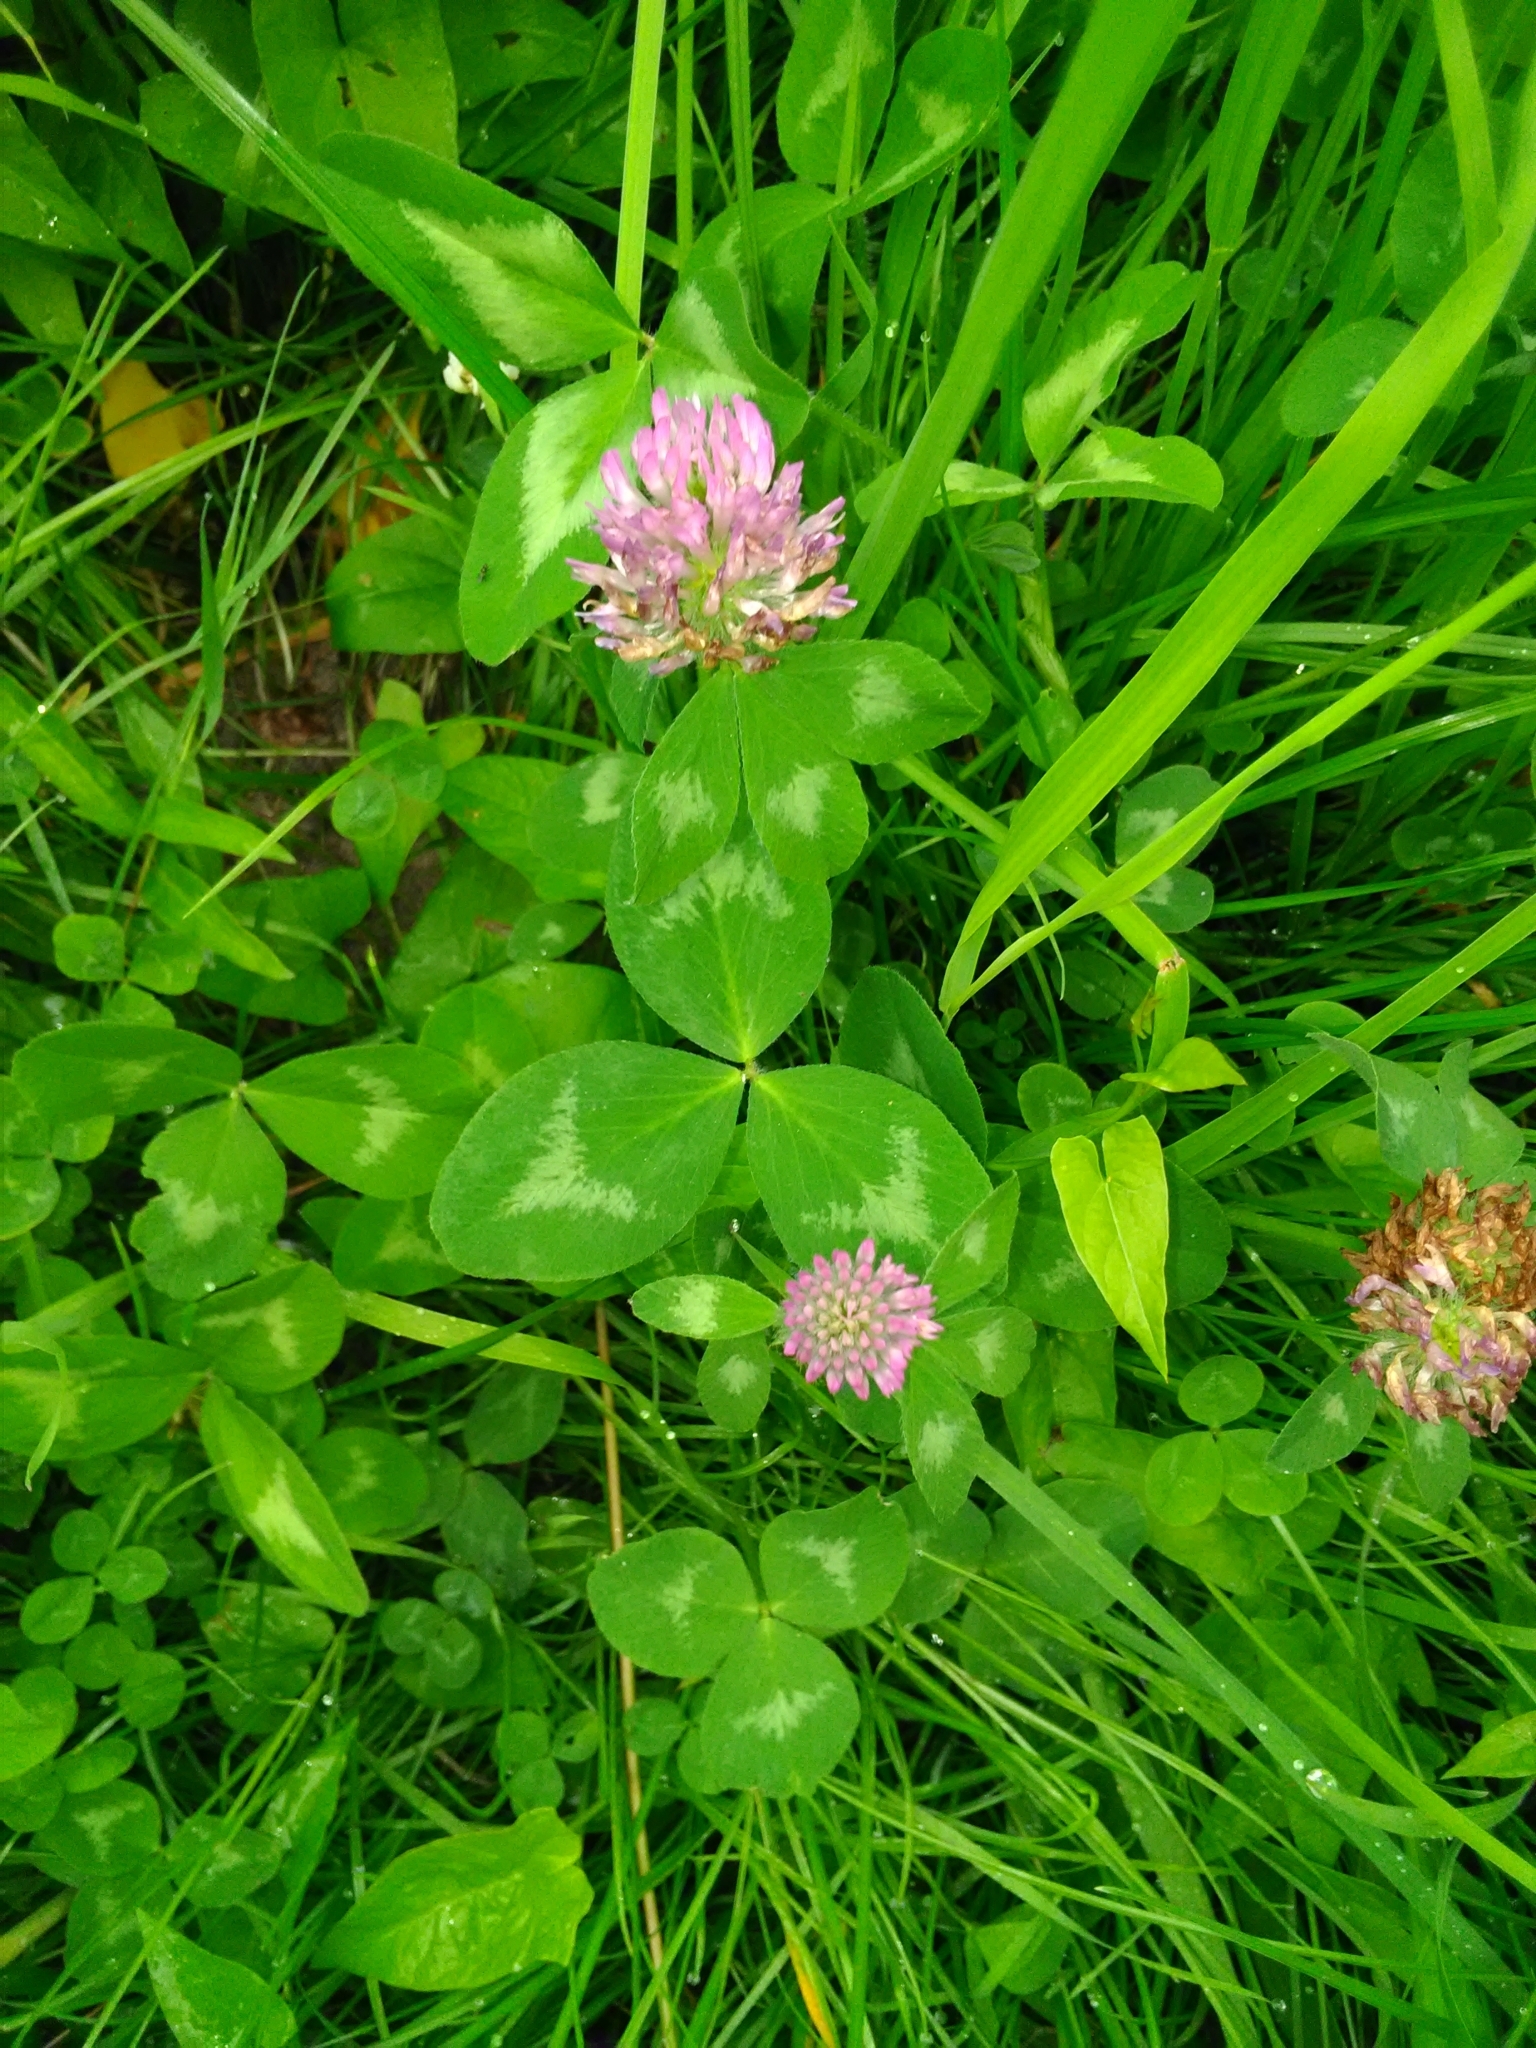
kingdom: Plantae
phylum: Tracheophyta
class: Magnoliopsida
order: Fabales
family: Fabaceae
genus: Trifolium
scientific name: Trifolium pratense
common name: Red clover
